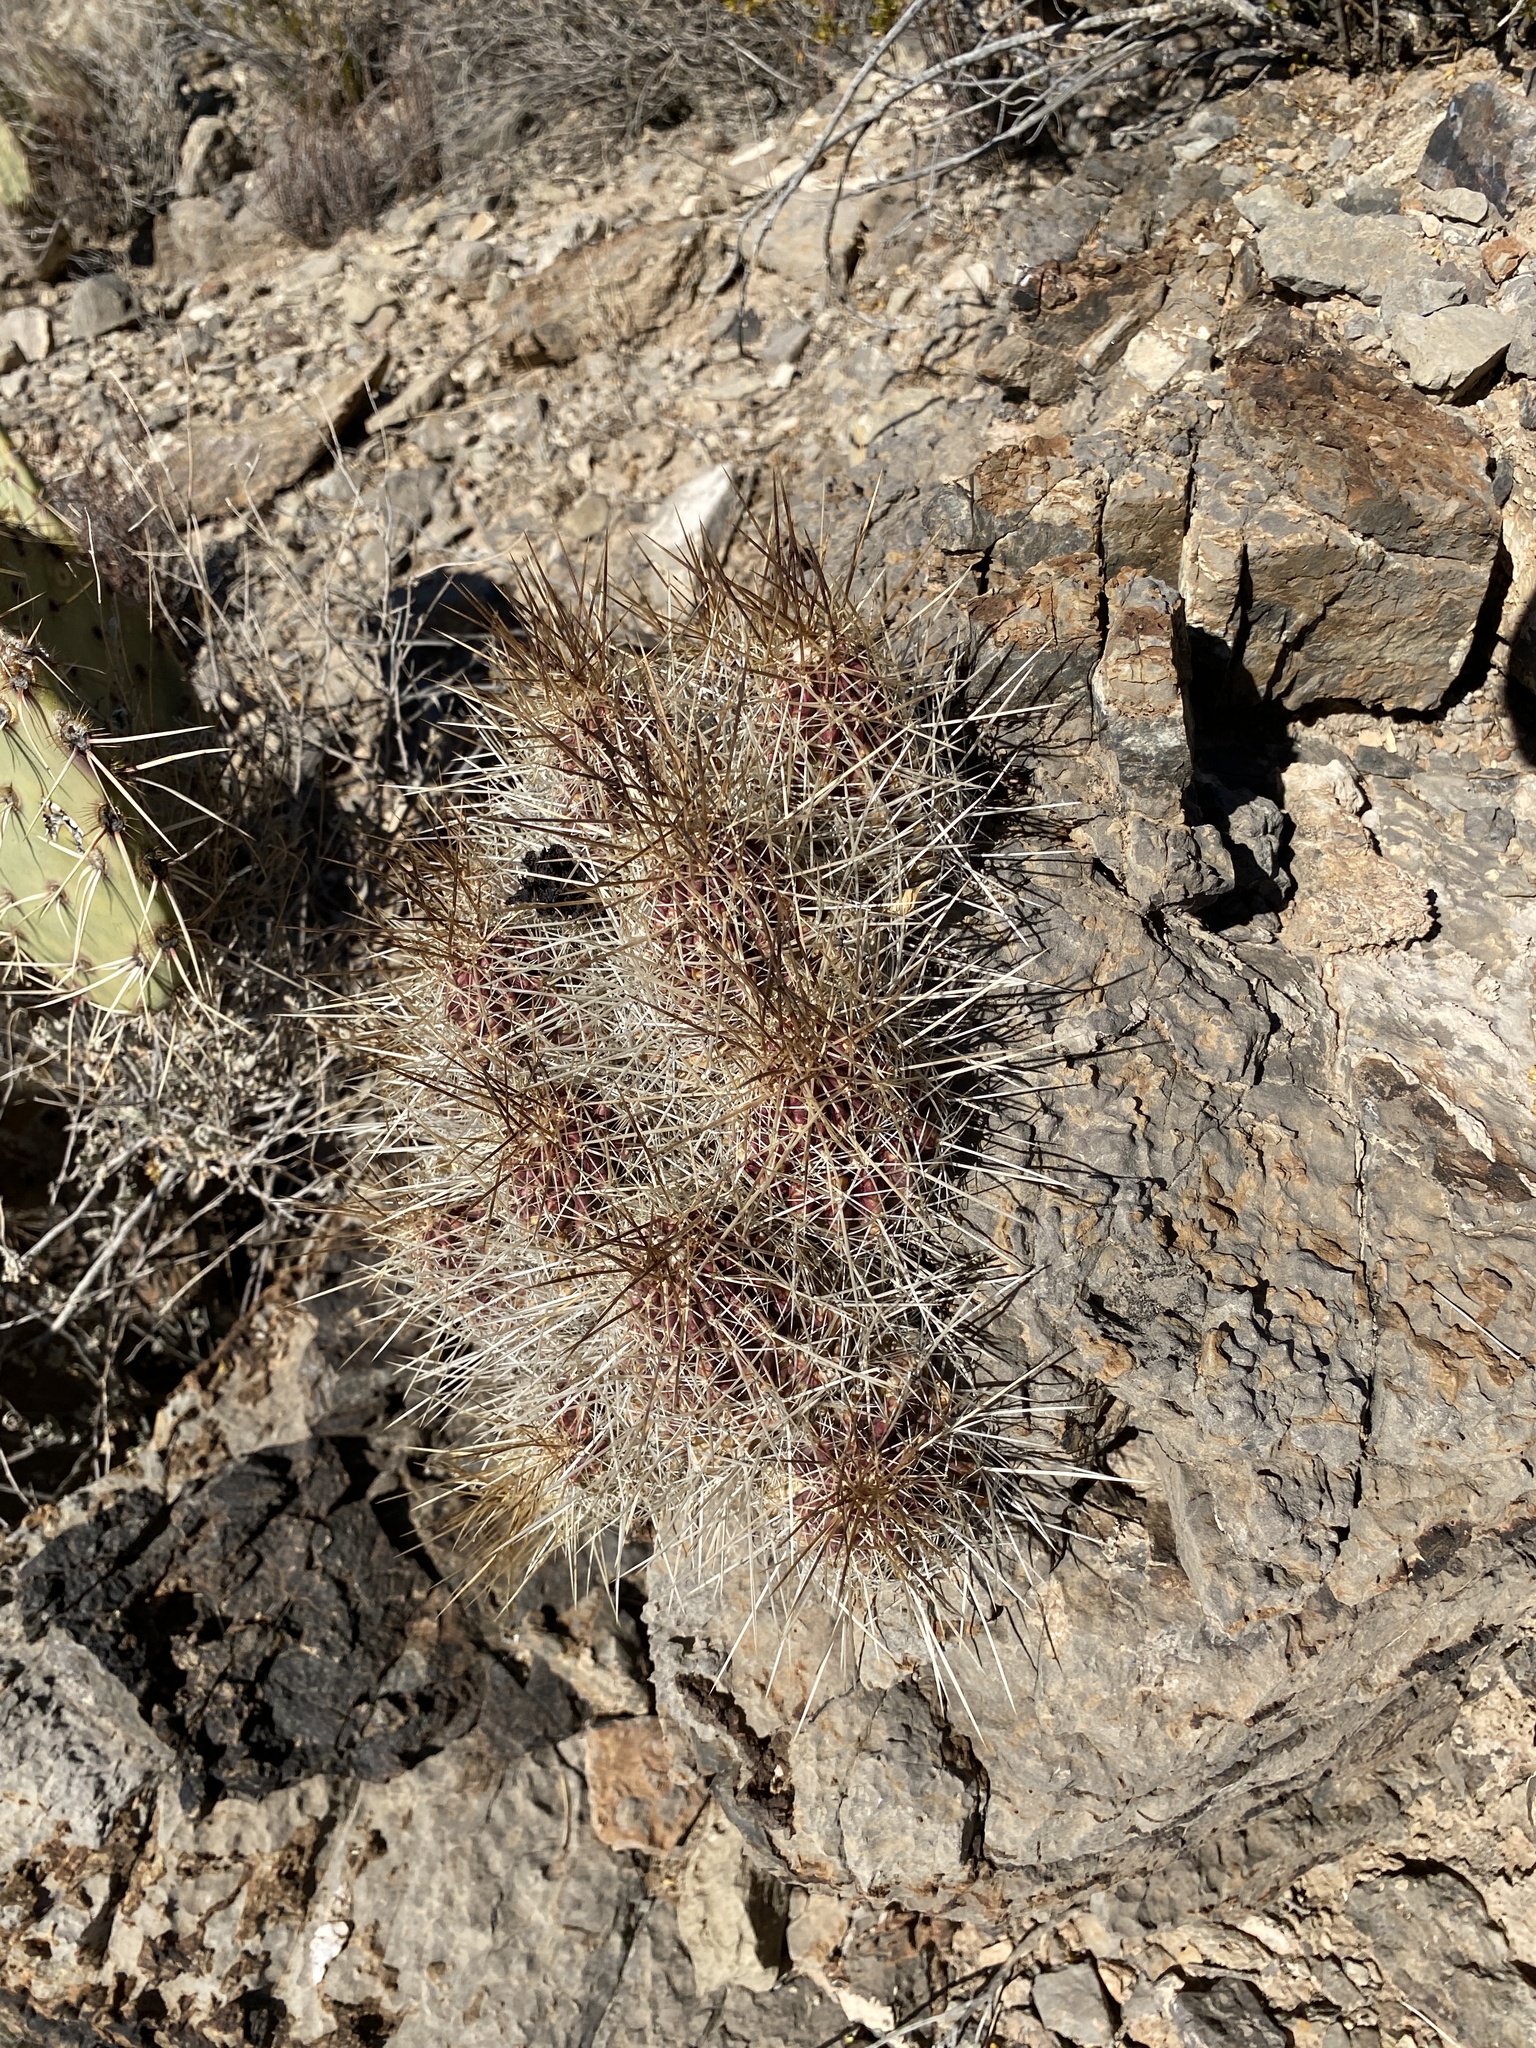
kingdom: Plantae
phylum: Tracheophyta
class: Magnoliopsida
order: Caryophyllales
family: Cactaceae
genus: Echinocereus
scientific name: Echinocereus stramineus
